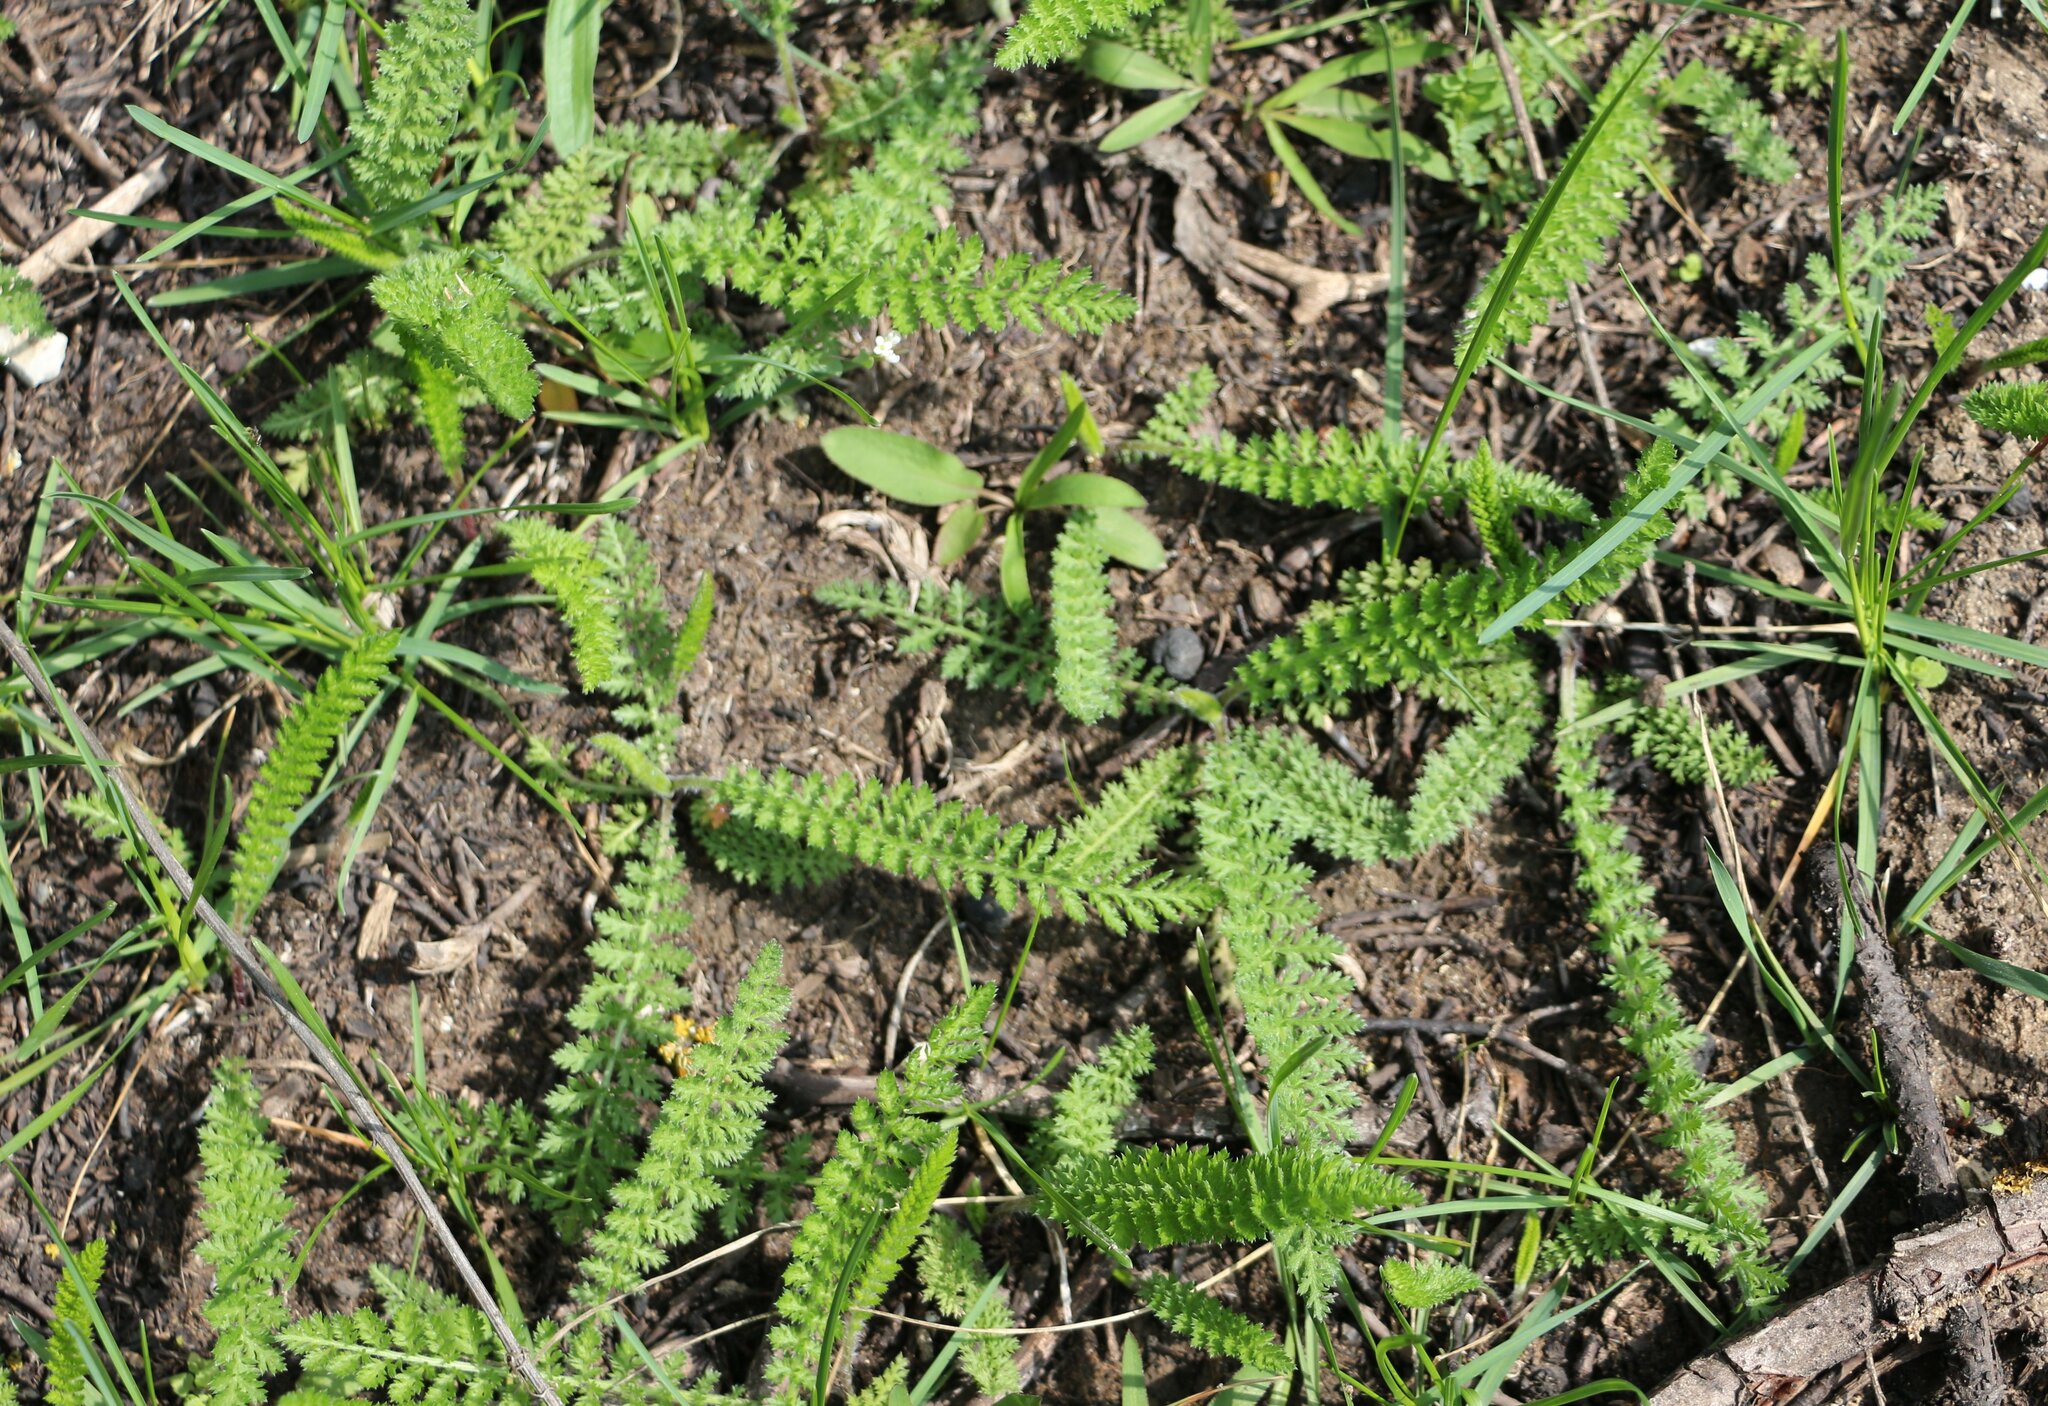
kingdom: Plantae
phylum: Tracheophyta
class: Magnoliopsida
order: Asterales
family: Asteraceae
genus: Achillea
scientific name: Achillea millefolium
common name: Yarrow
